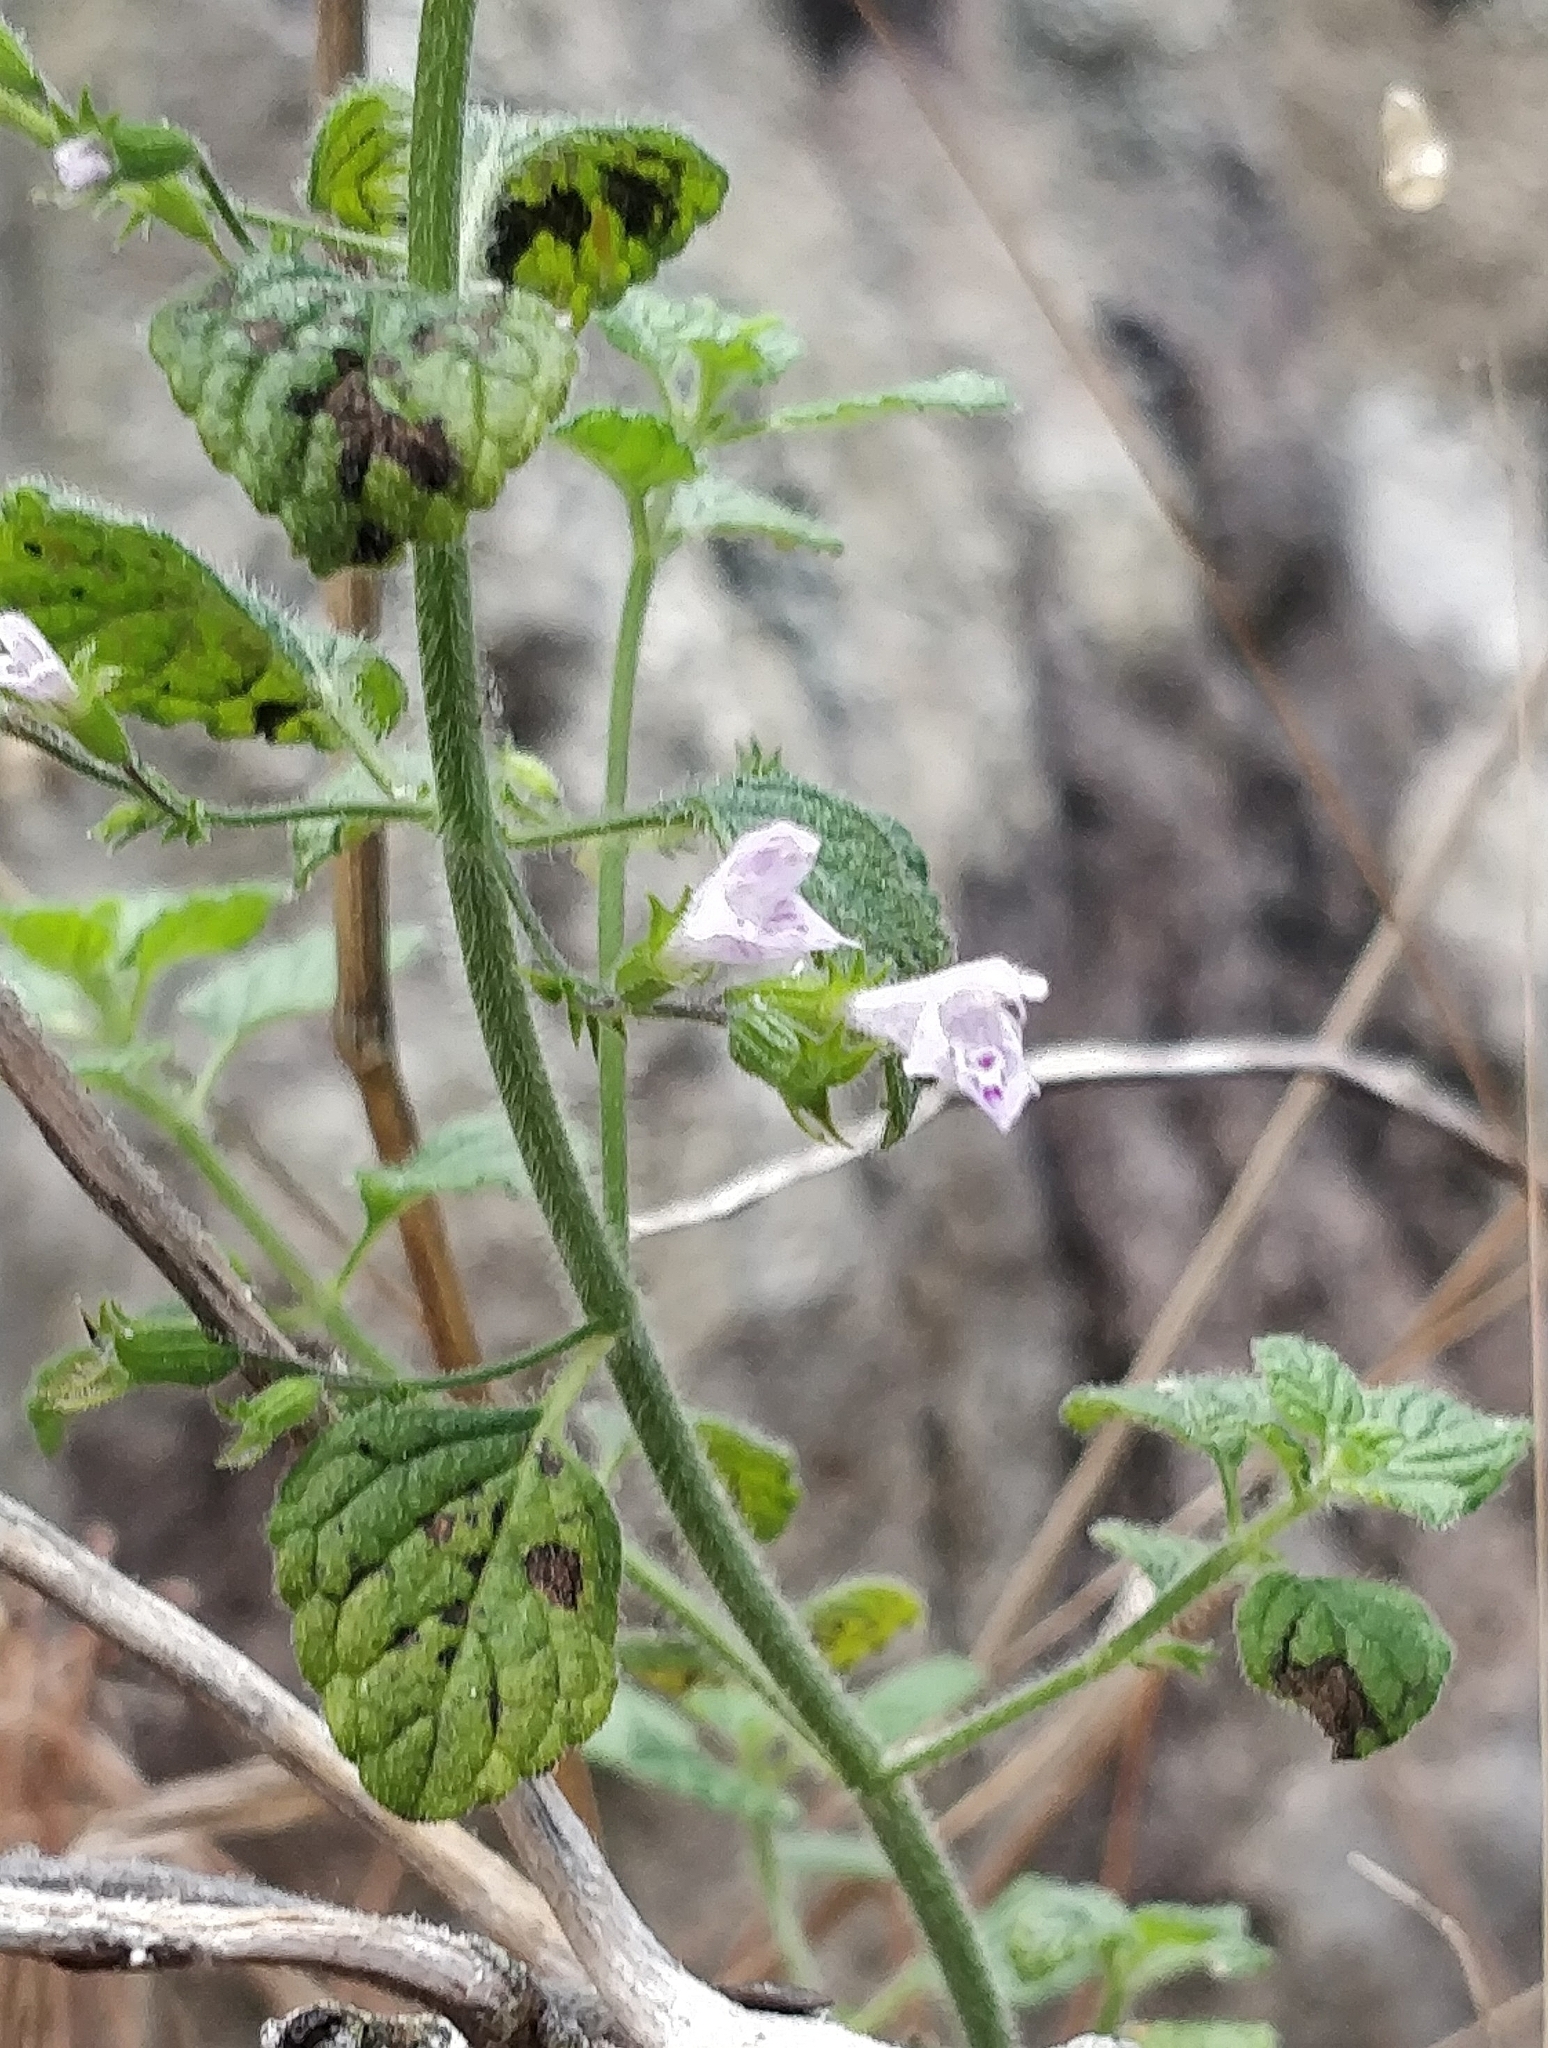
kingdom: Plantae
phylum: Tracheophyta
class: Magnoliopsida
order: Lamiales
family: Lamiaceae
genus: Clinopodium
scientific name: Clinopodium menthifolium
